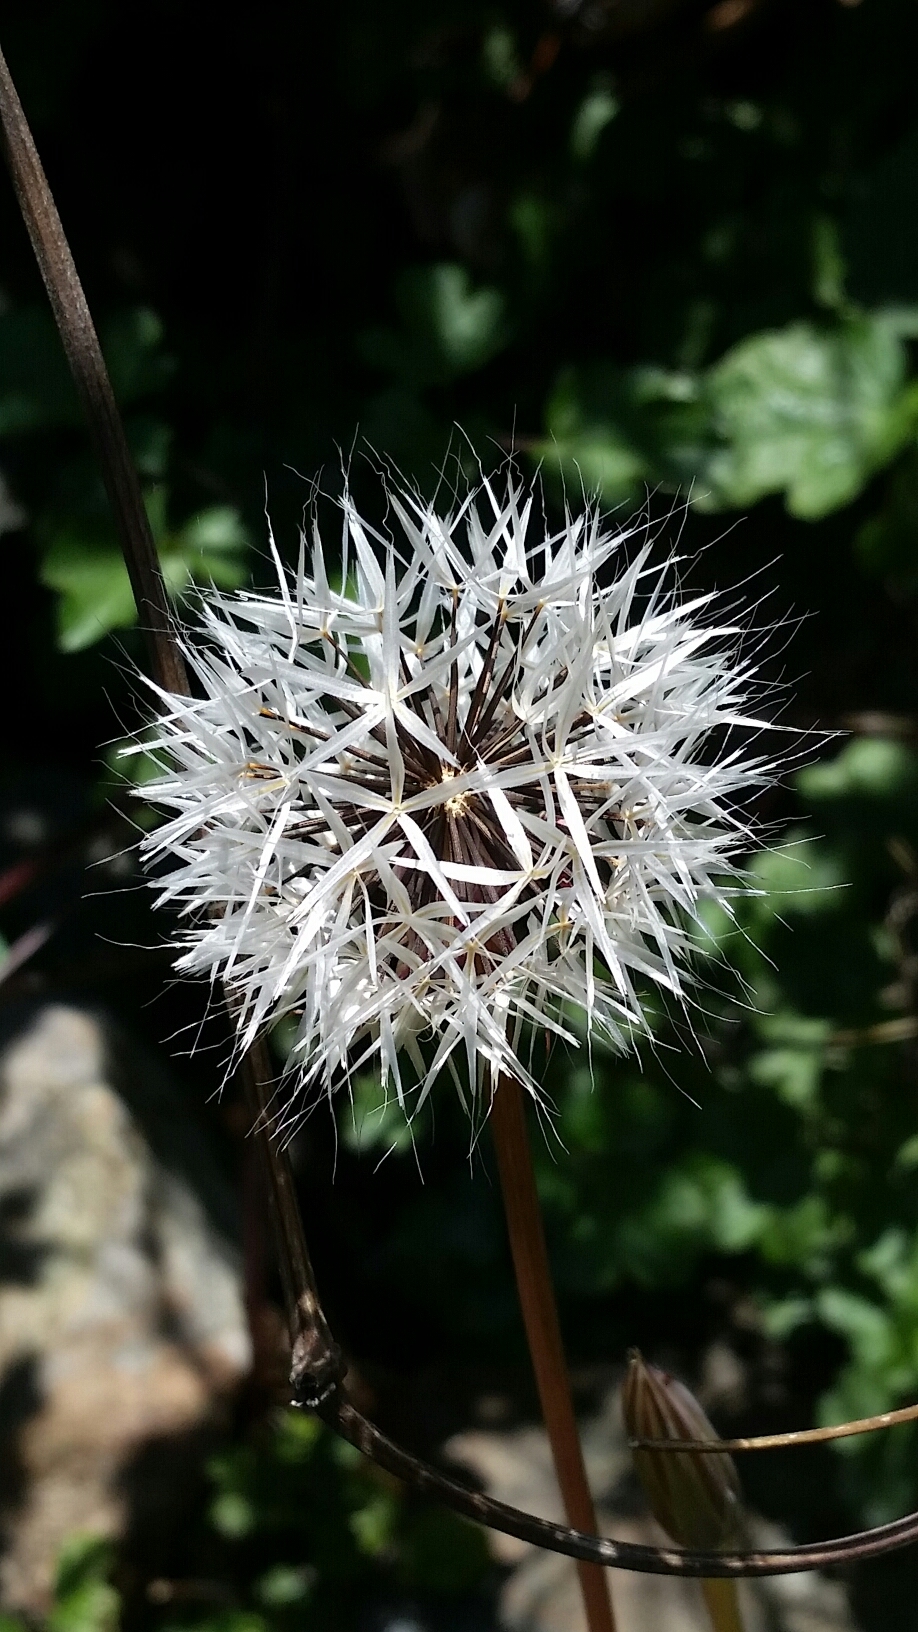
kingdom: Plantae
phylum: Tracheophyta
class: Magnoliopsida
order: Asterales
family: Asteraceae
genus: Microseris
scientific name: Microseris lindleyi
